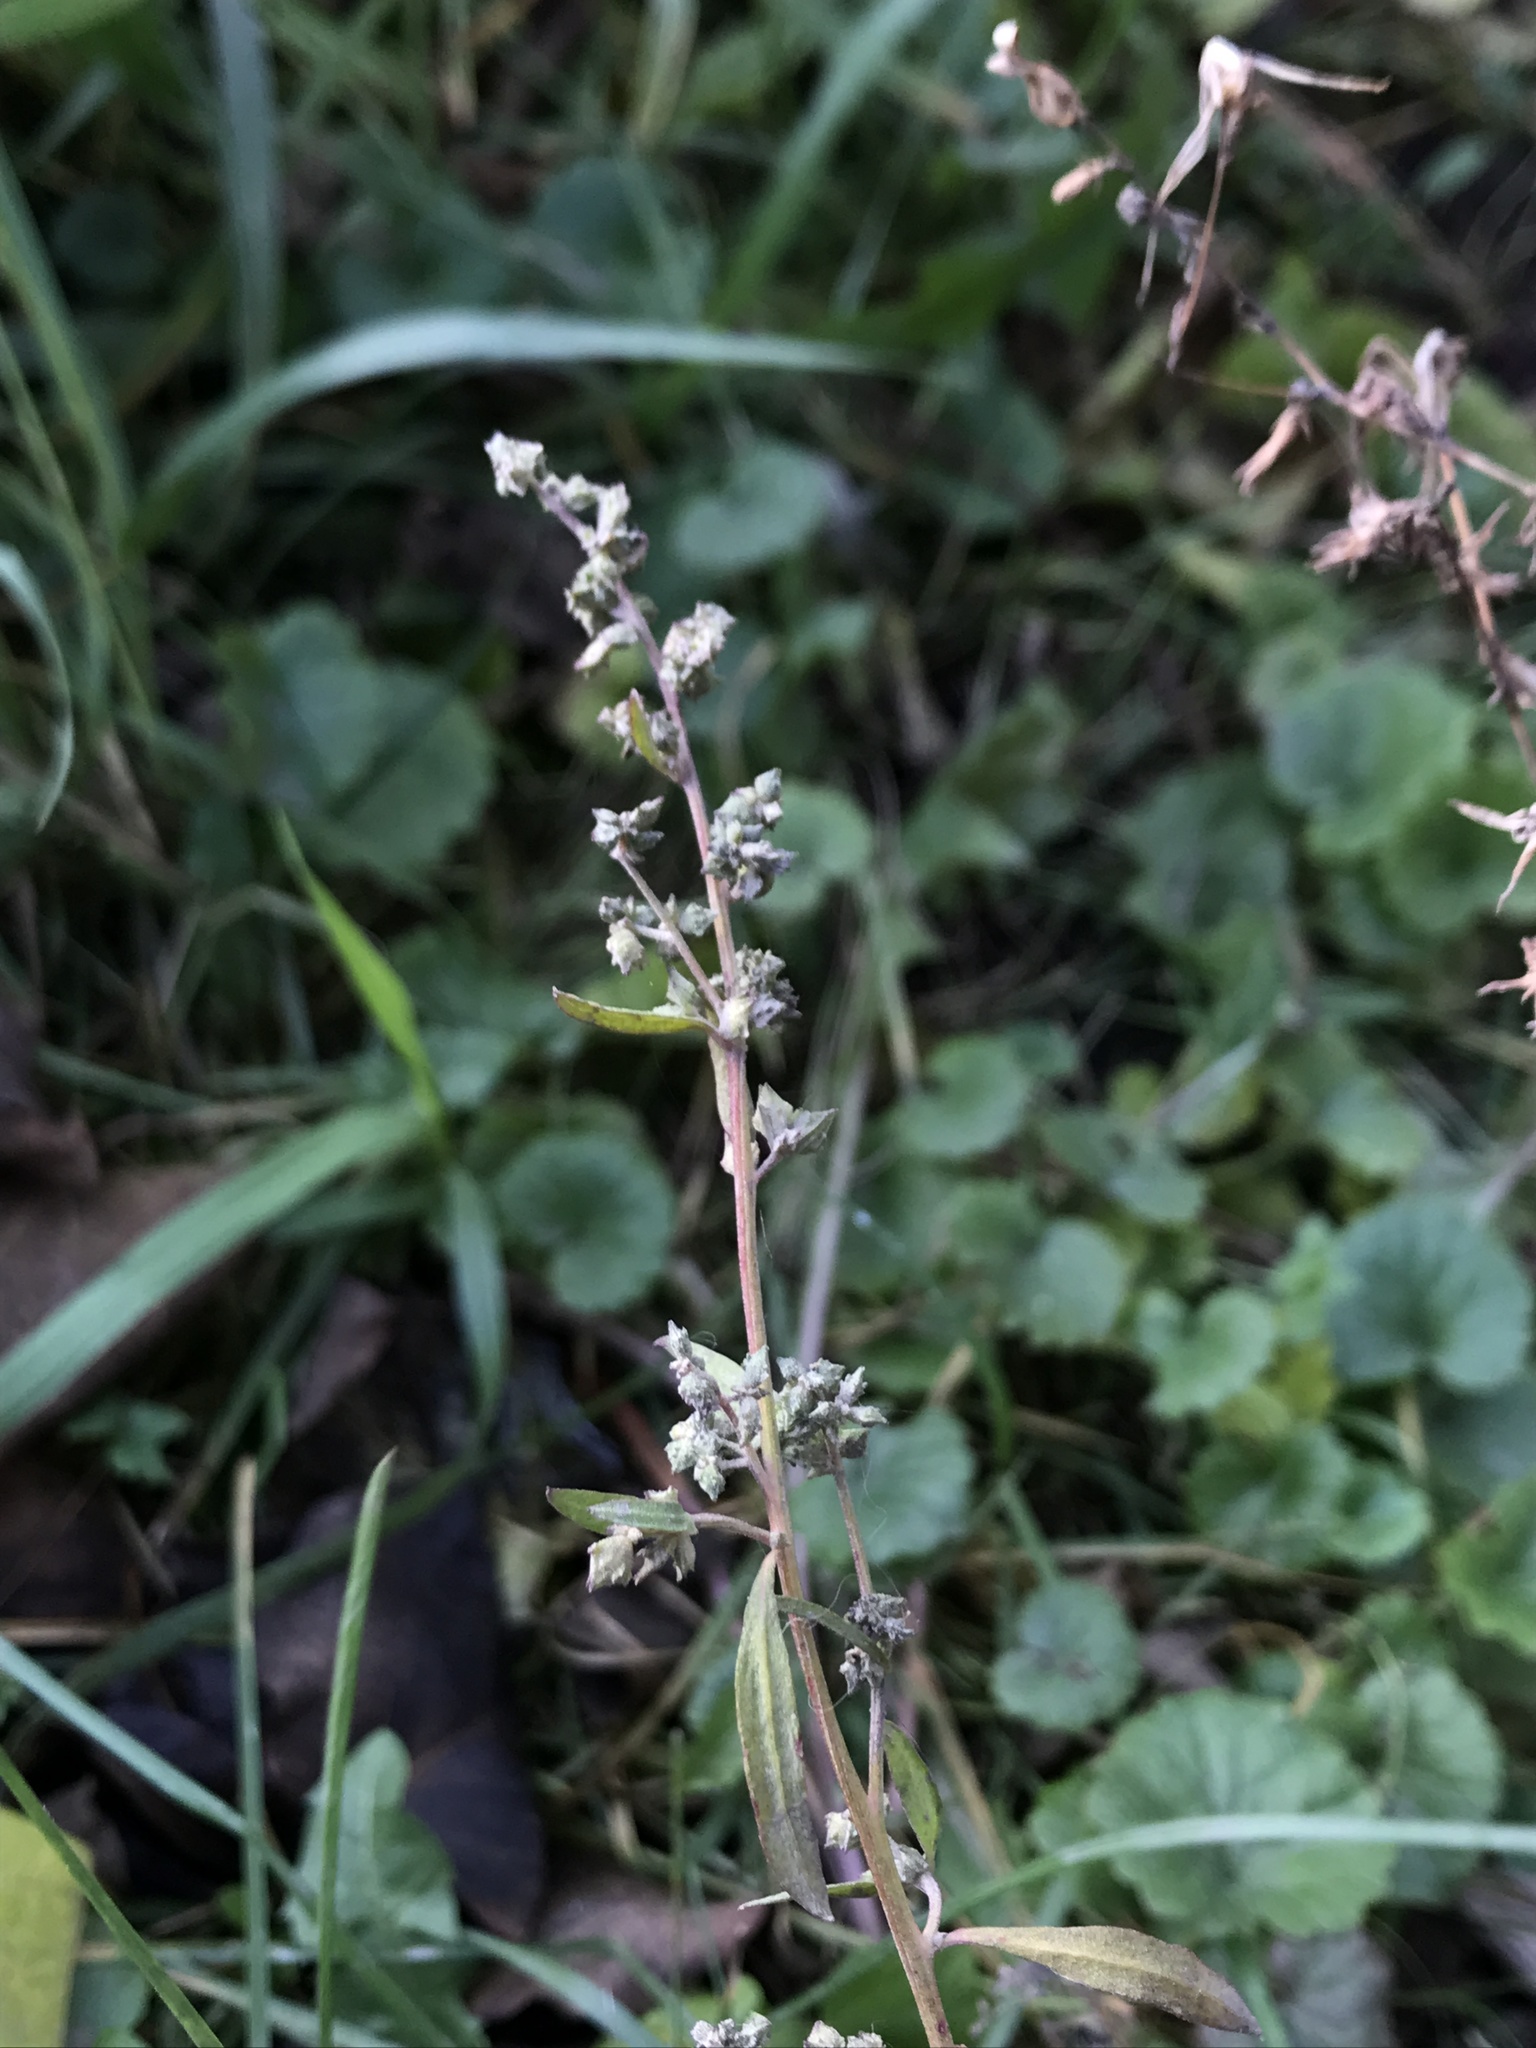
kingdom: Plantae
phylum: Tracheophyta
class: Magnoliopsida
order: Caryophyllales
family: Amaranthaceae
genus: Atriplex
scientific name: Atriplex patula
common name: Common orache
